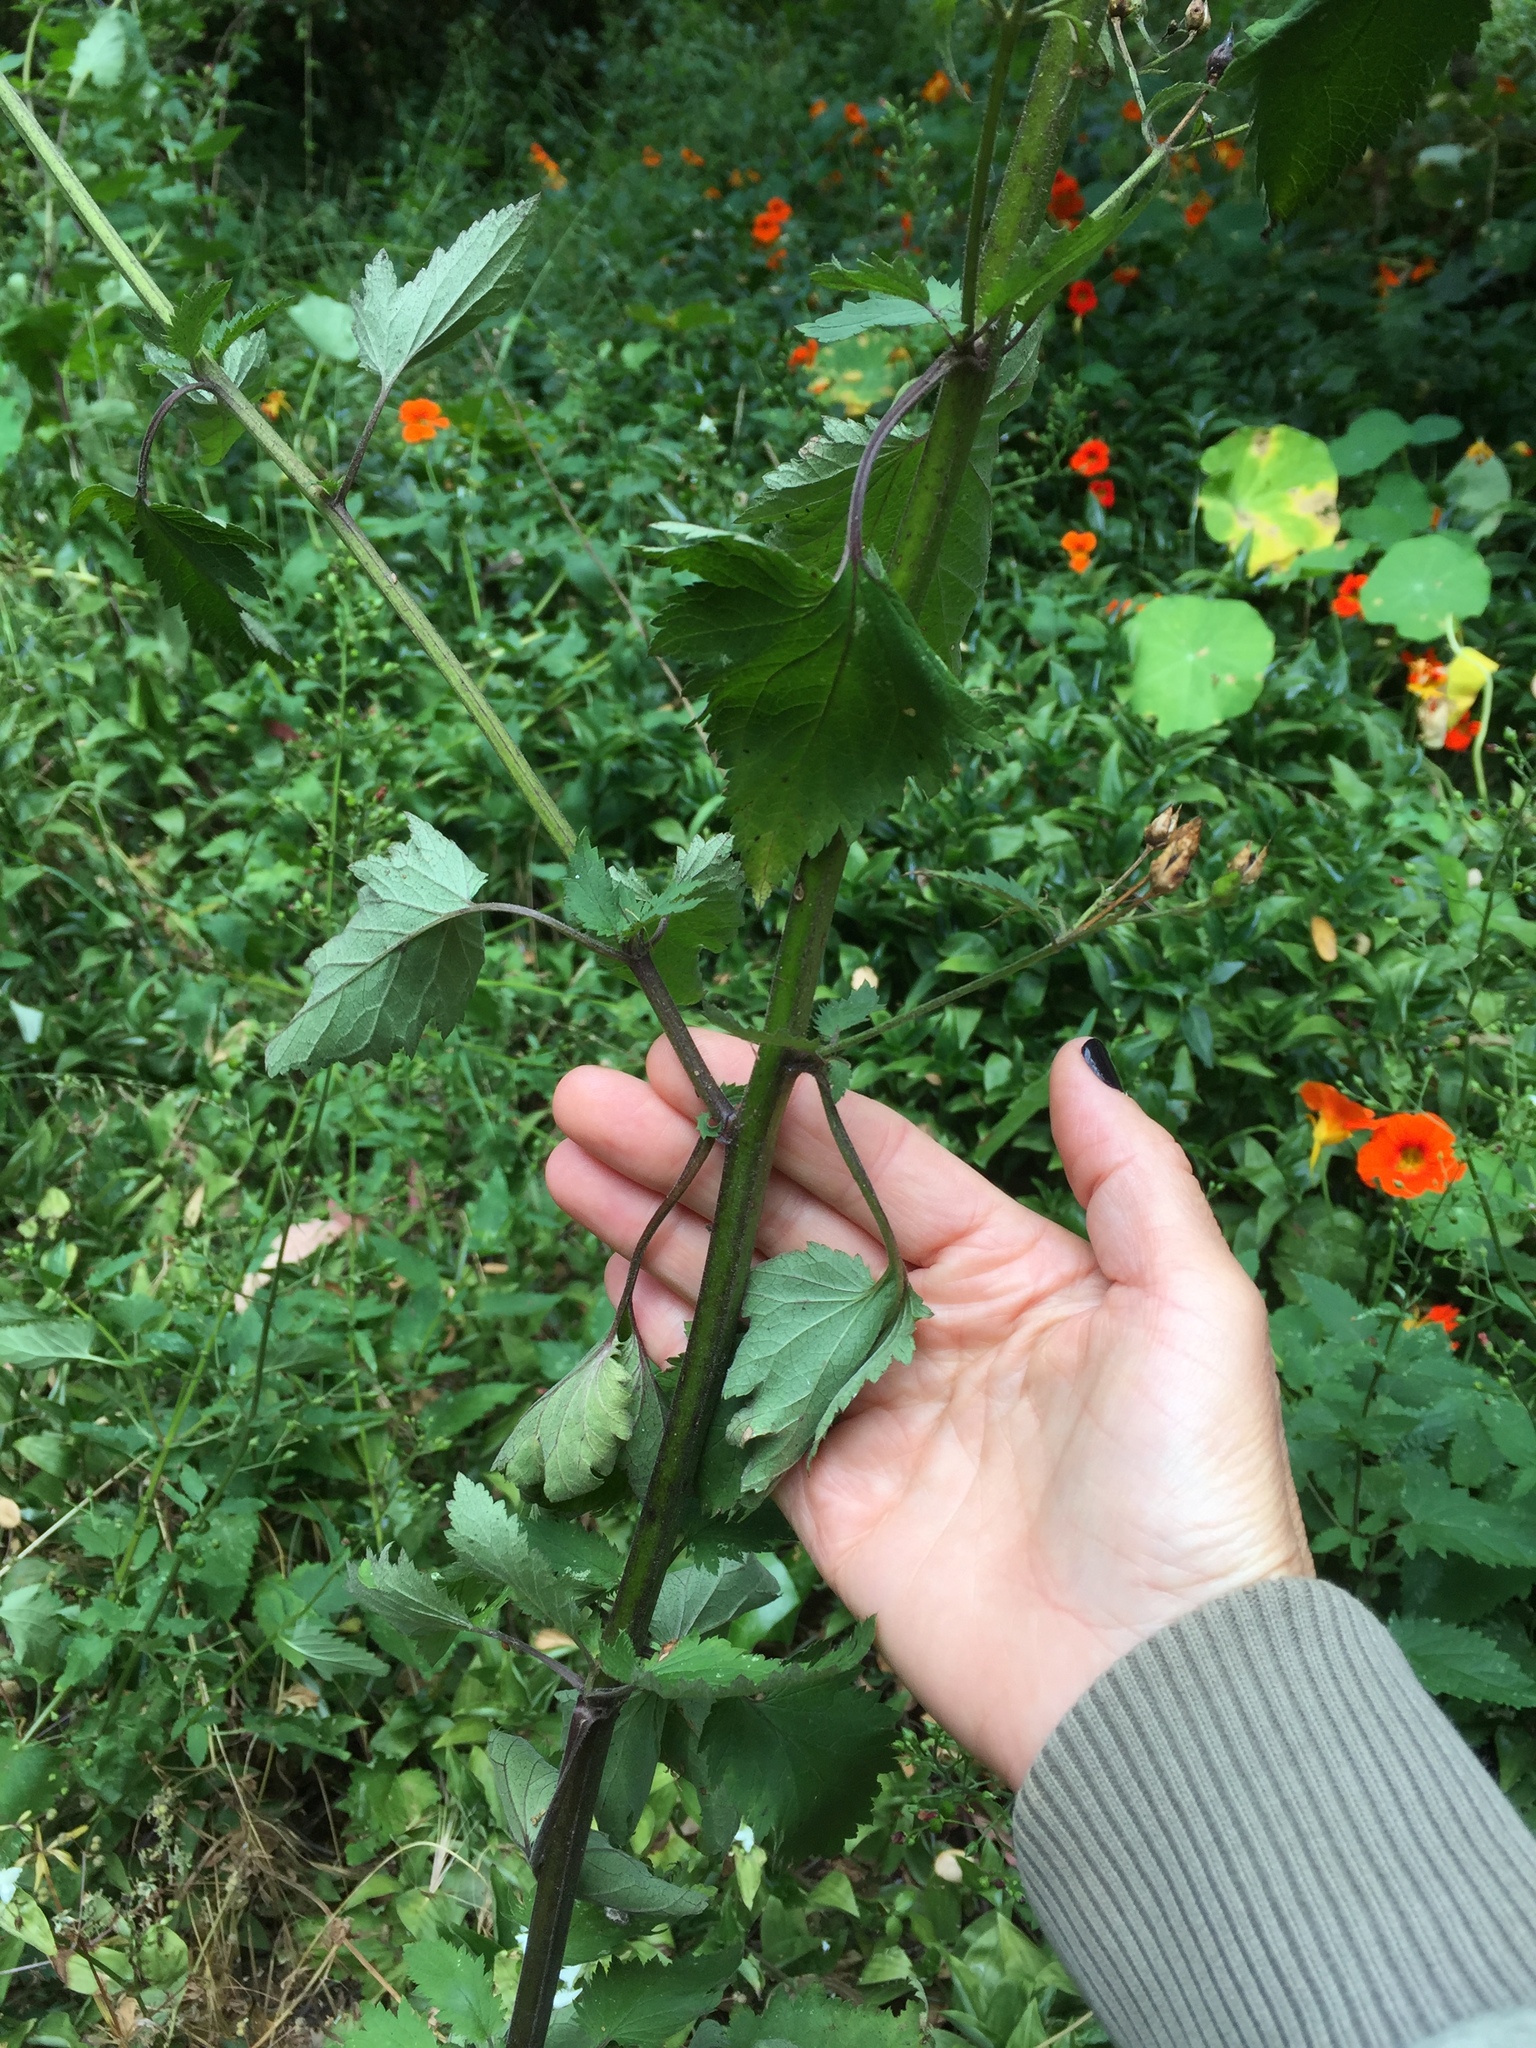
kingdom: Plantae
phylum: Tracheophyta
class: Magnoliopsida
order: Lamiales
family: Scrophulariaceae
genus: Scrophularia
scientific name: Scrophularia californica
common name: California figwort
